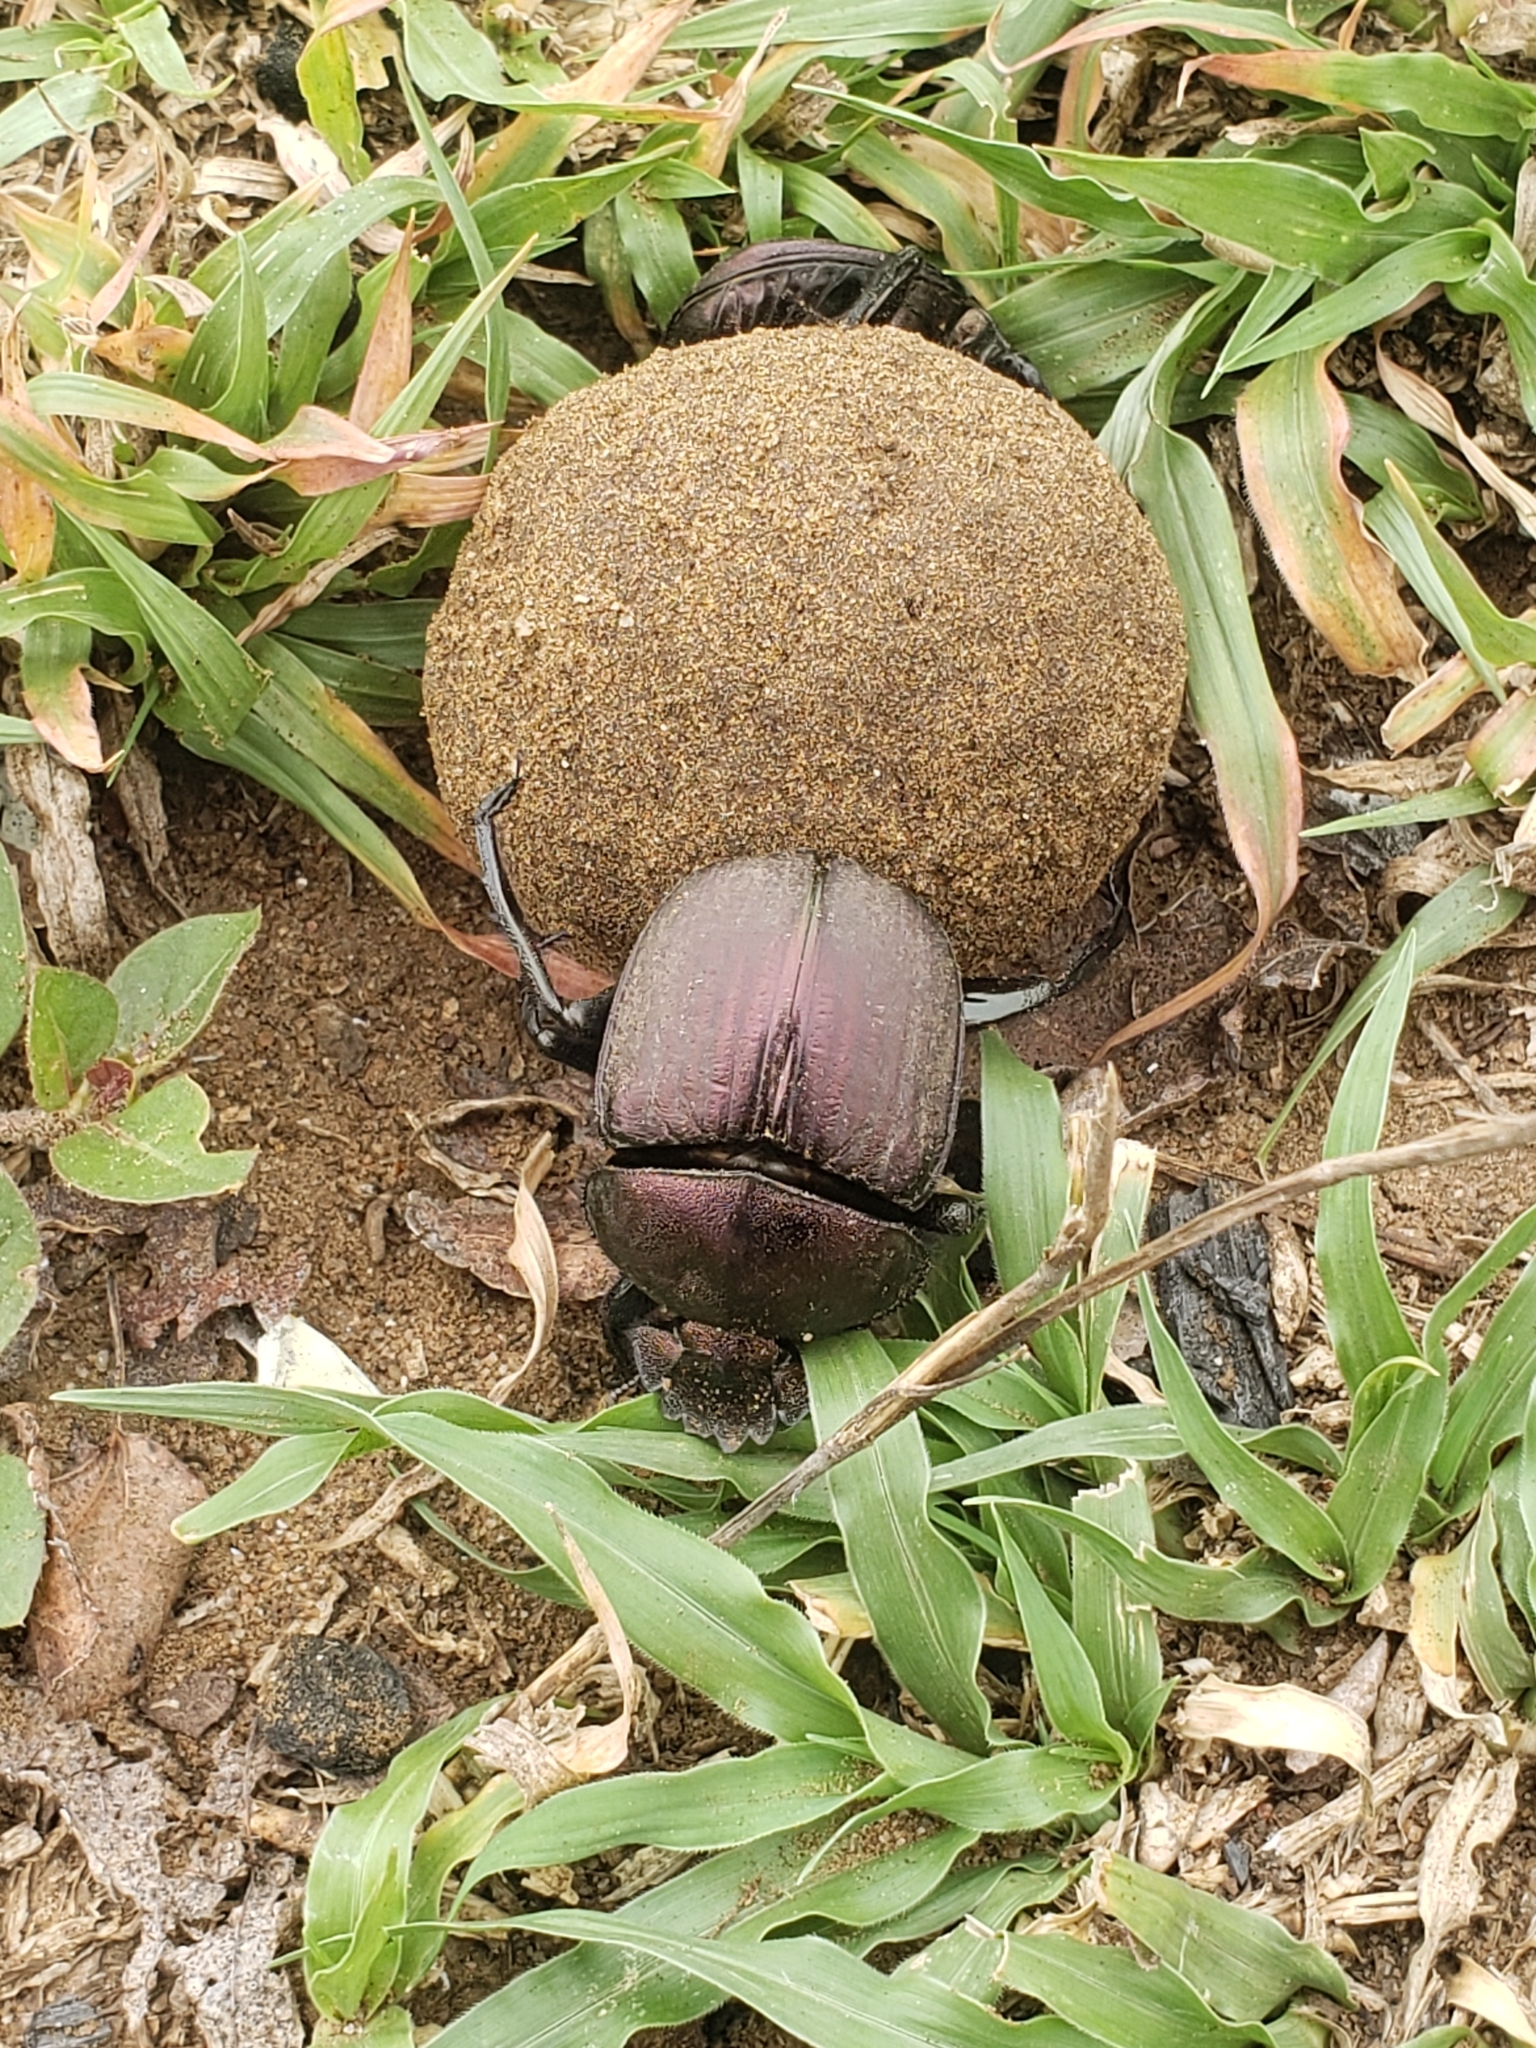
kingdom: Animalia
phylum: Arthropoda
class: Insecta
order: Coleoptera
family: Scarabaeidae
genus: Kheper
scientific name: Kheper nigroaeneus
